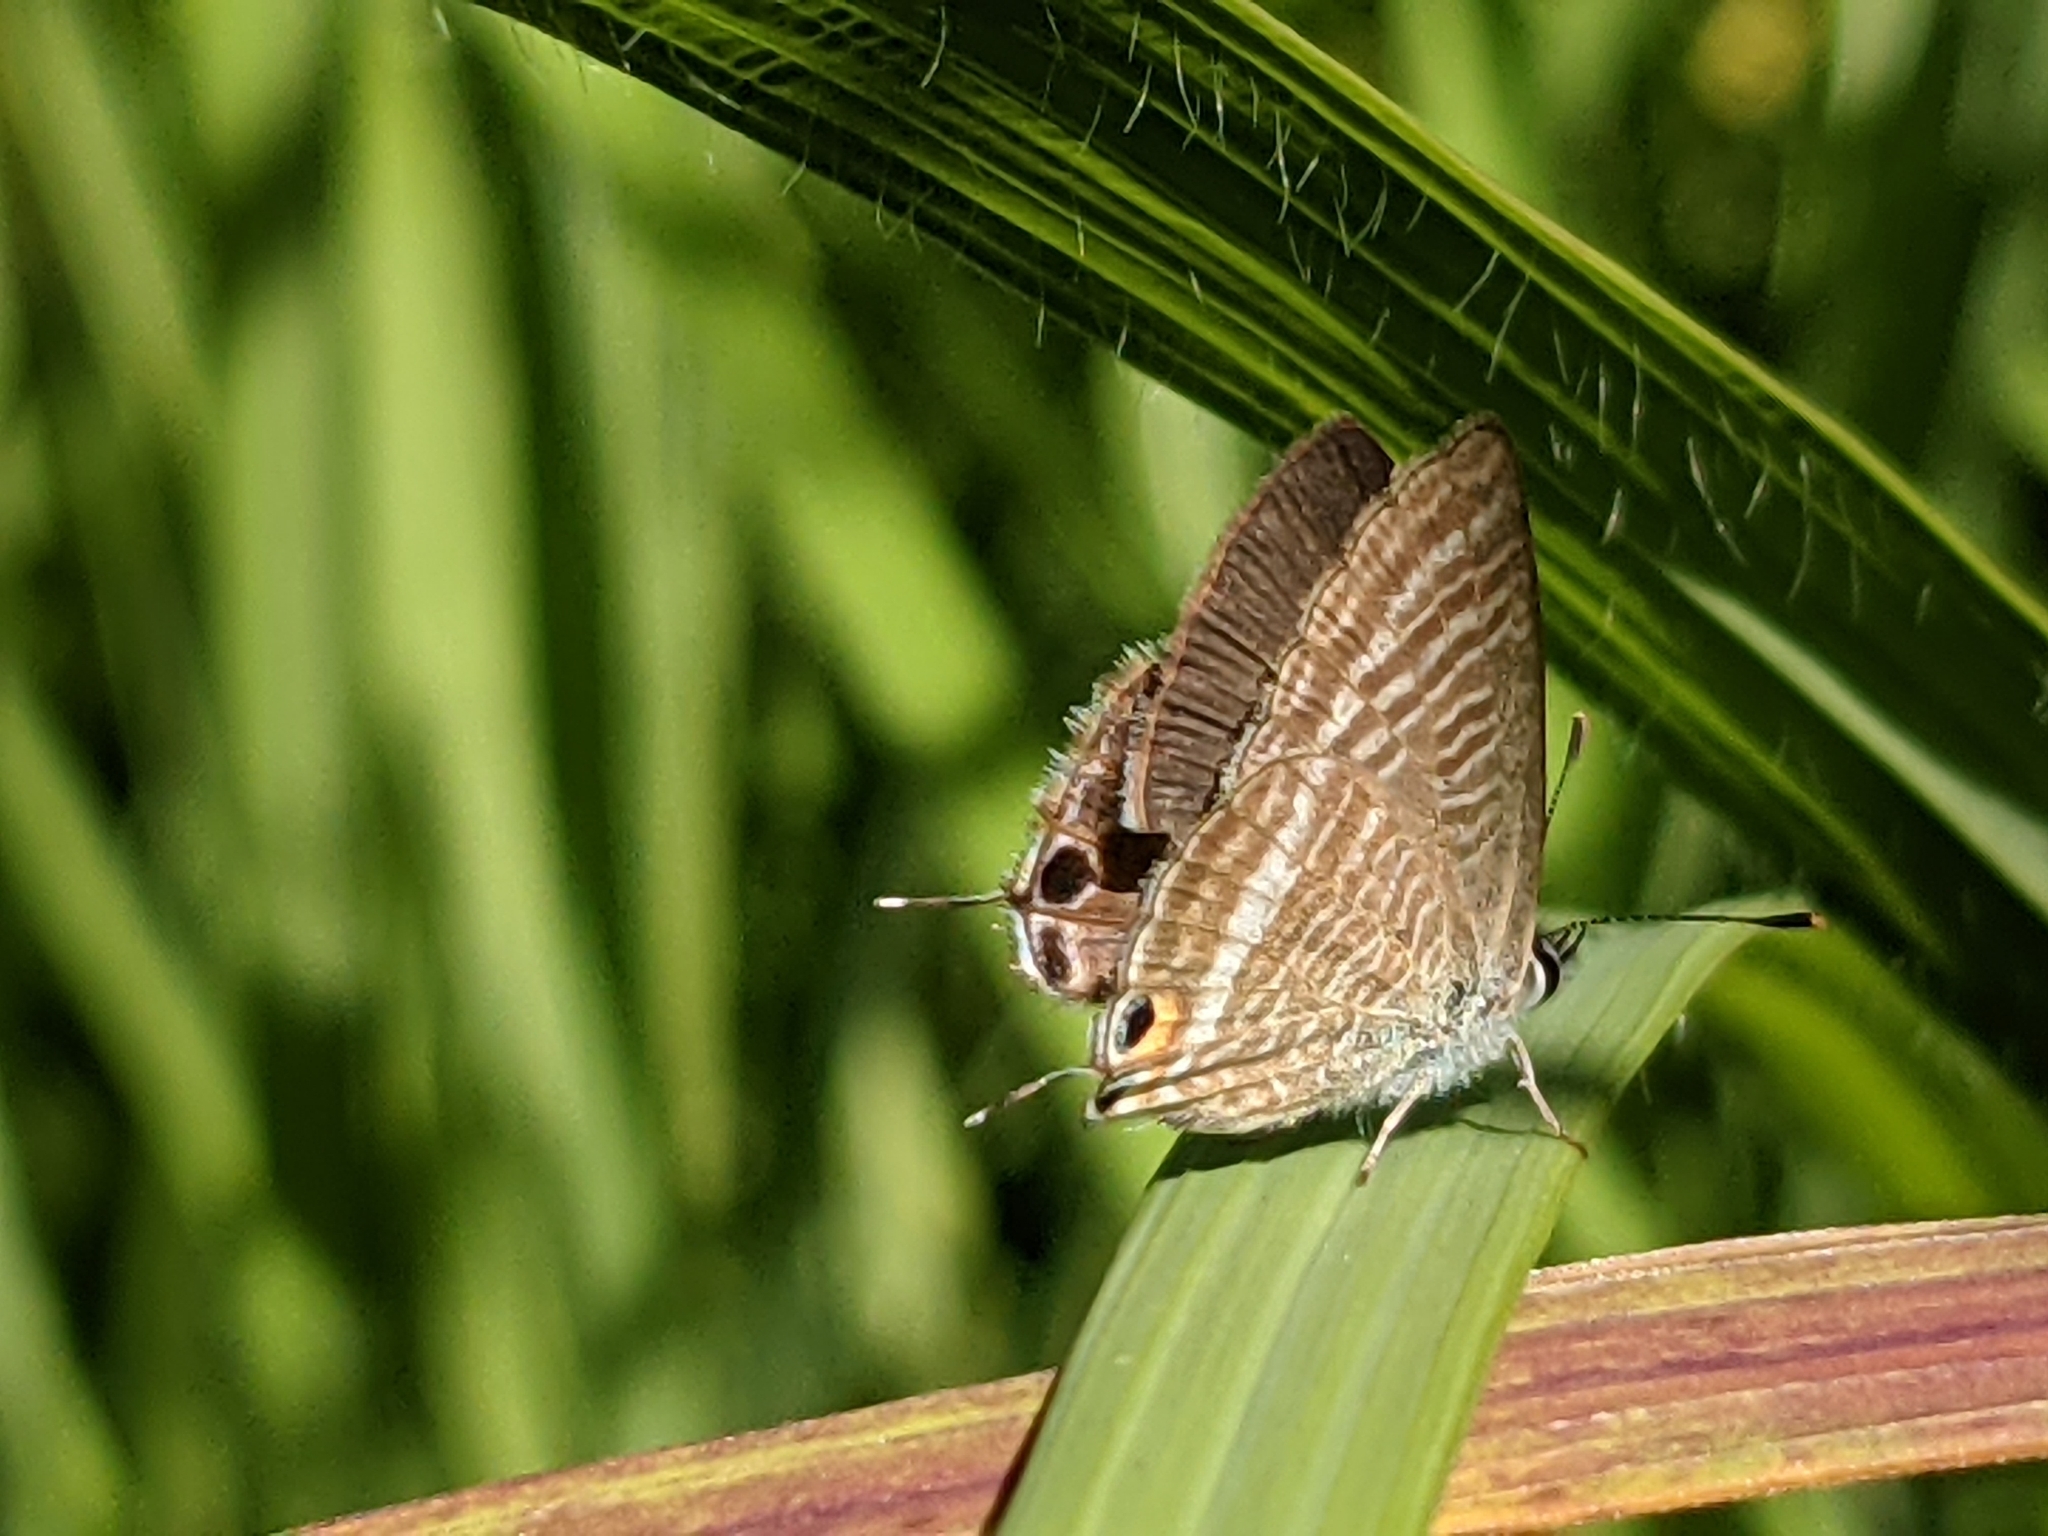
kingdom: Animalia
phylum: Arthropoda
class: Insecta
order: Lepidoptera
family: Lycaenidae
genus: Lampides
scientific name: Lampides boeticus
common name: Long-tailed blue
